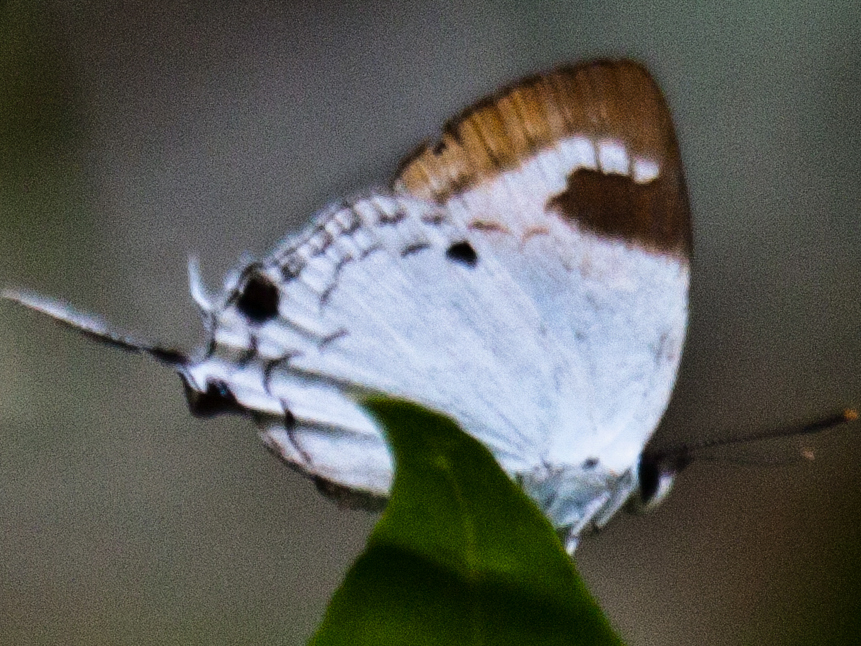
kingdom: Animalia
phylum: Arthropoda
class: Insecta
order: Lepidoptera
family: Lycaenidae
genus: Suasa
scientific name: Suasa lisides
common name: Red imperial
